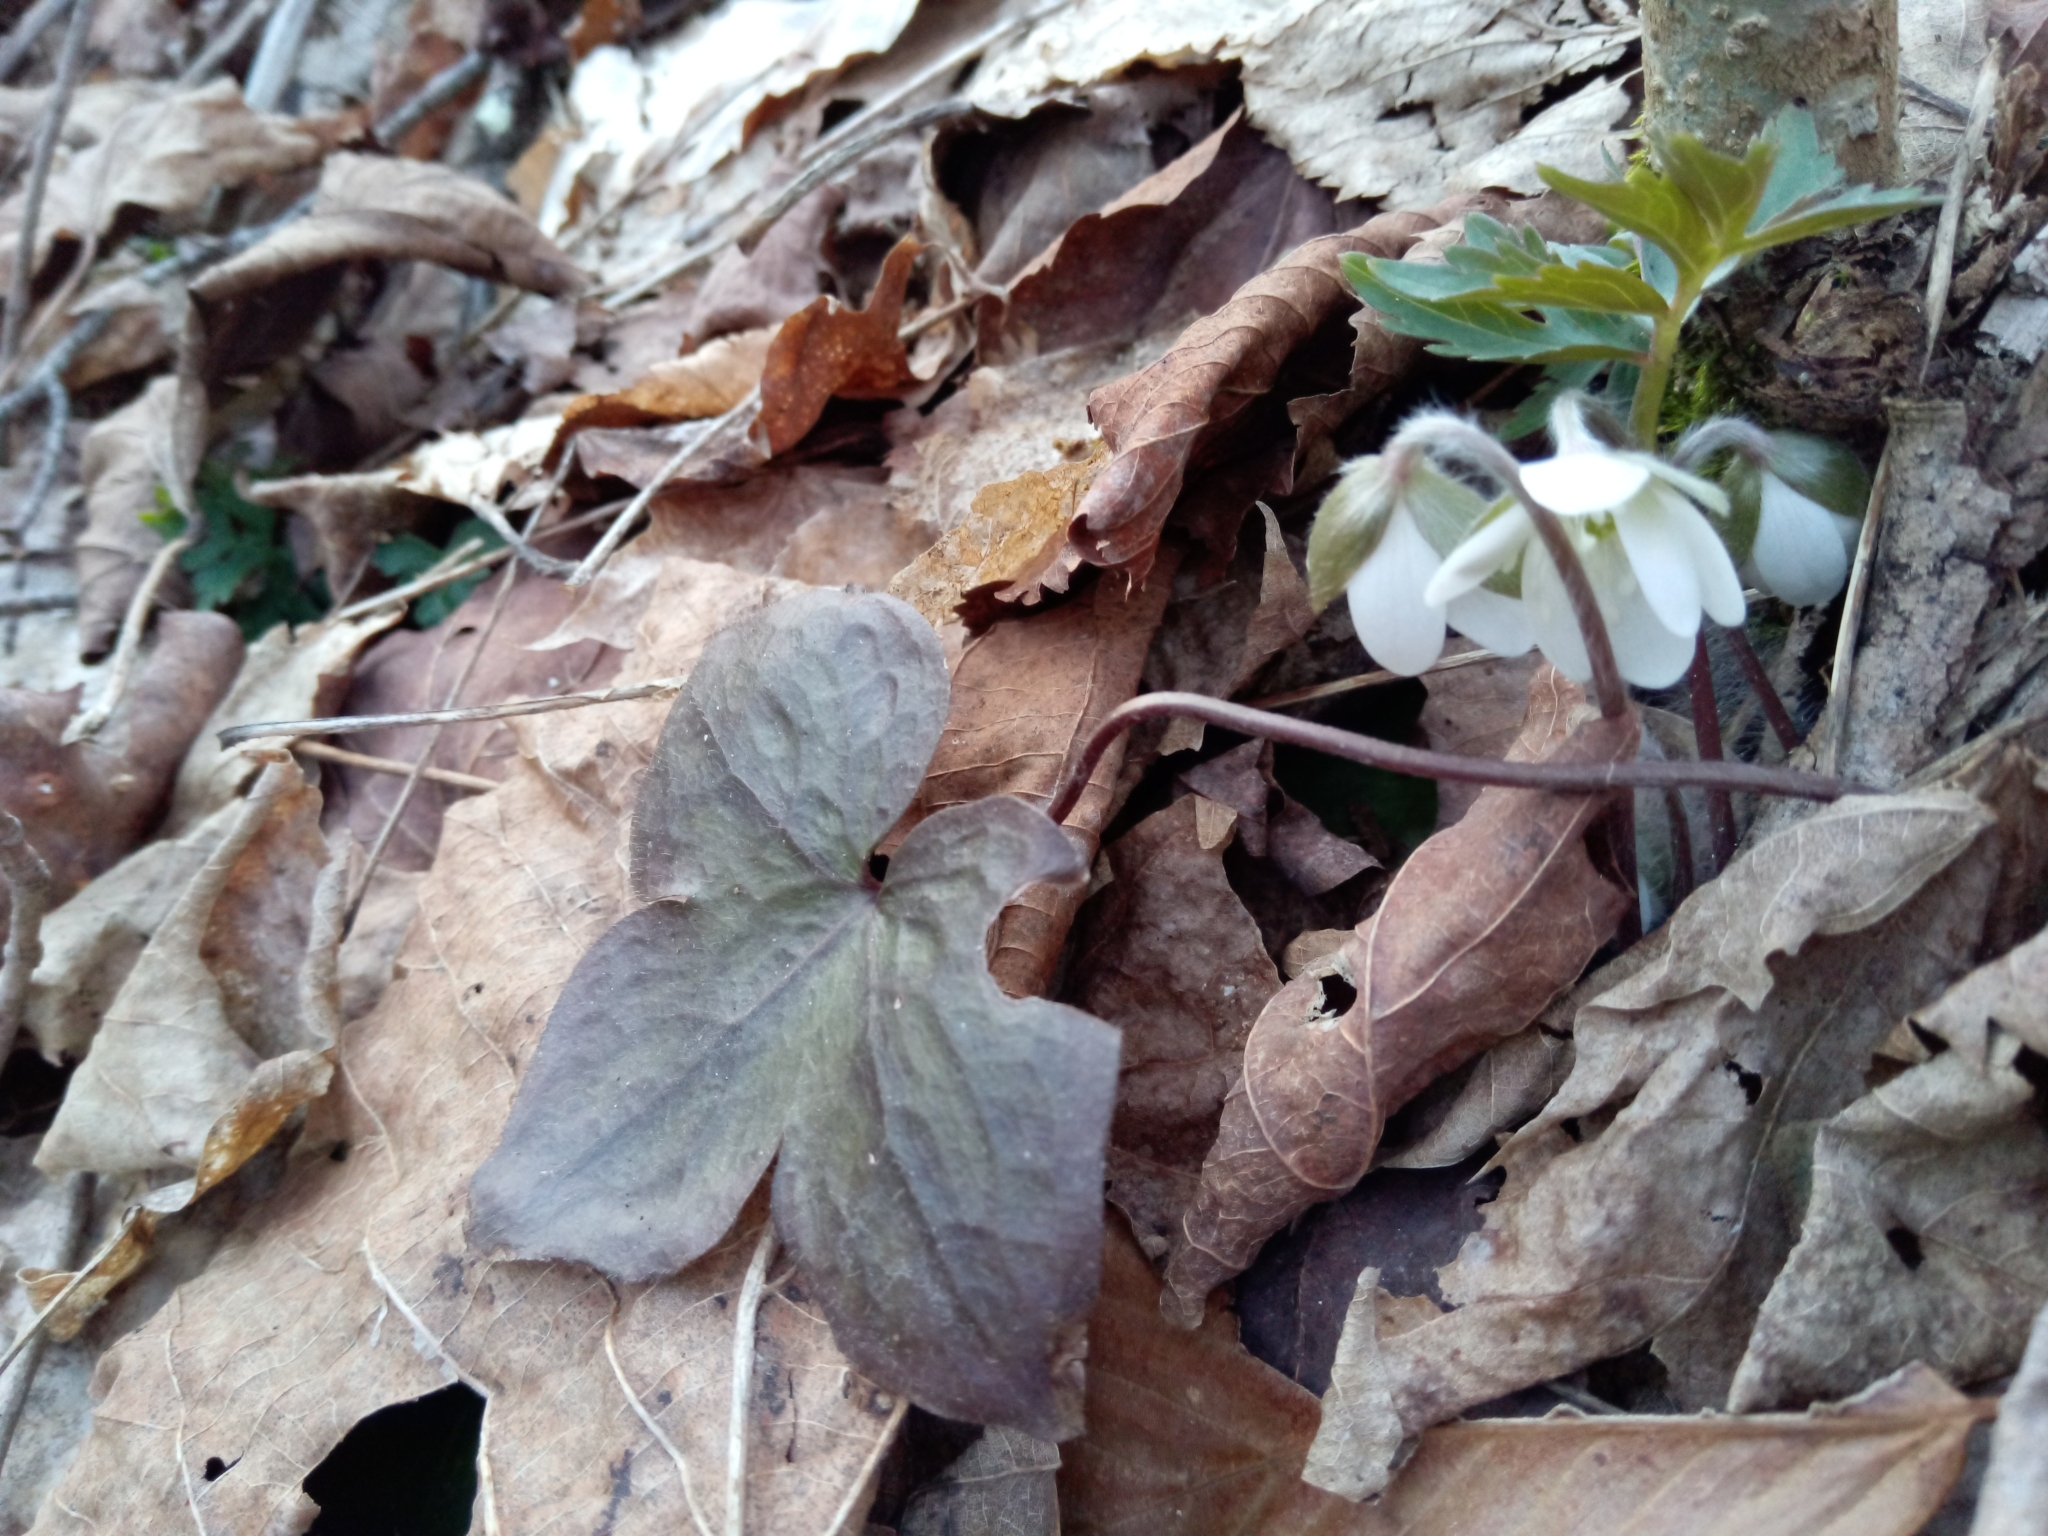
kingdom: Plantae
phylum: Tracheophyta
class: Magnoliopsida
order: Ranunculales
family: Ranunculaceae
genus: Hepatica
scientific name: Hepatica acutiloba
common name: Sharp-lobed hepatica
